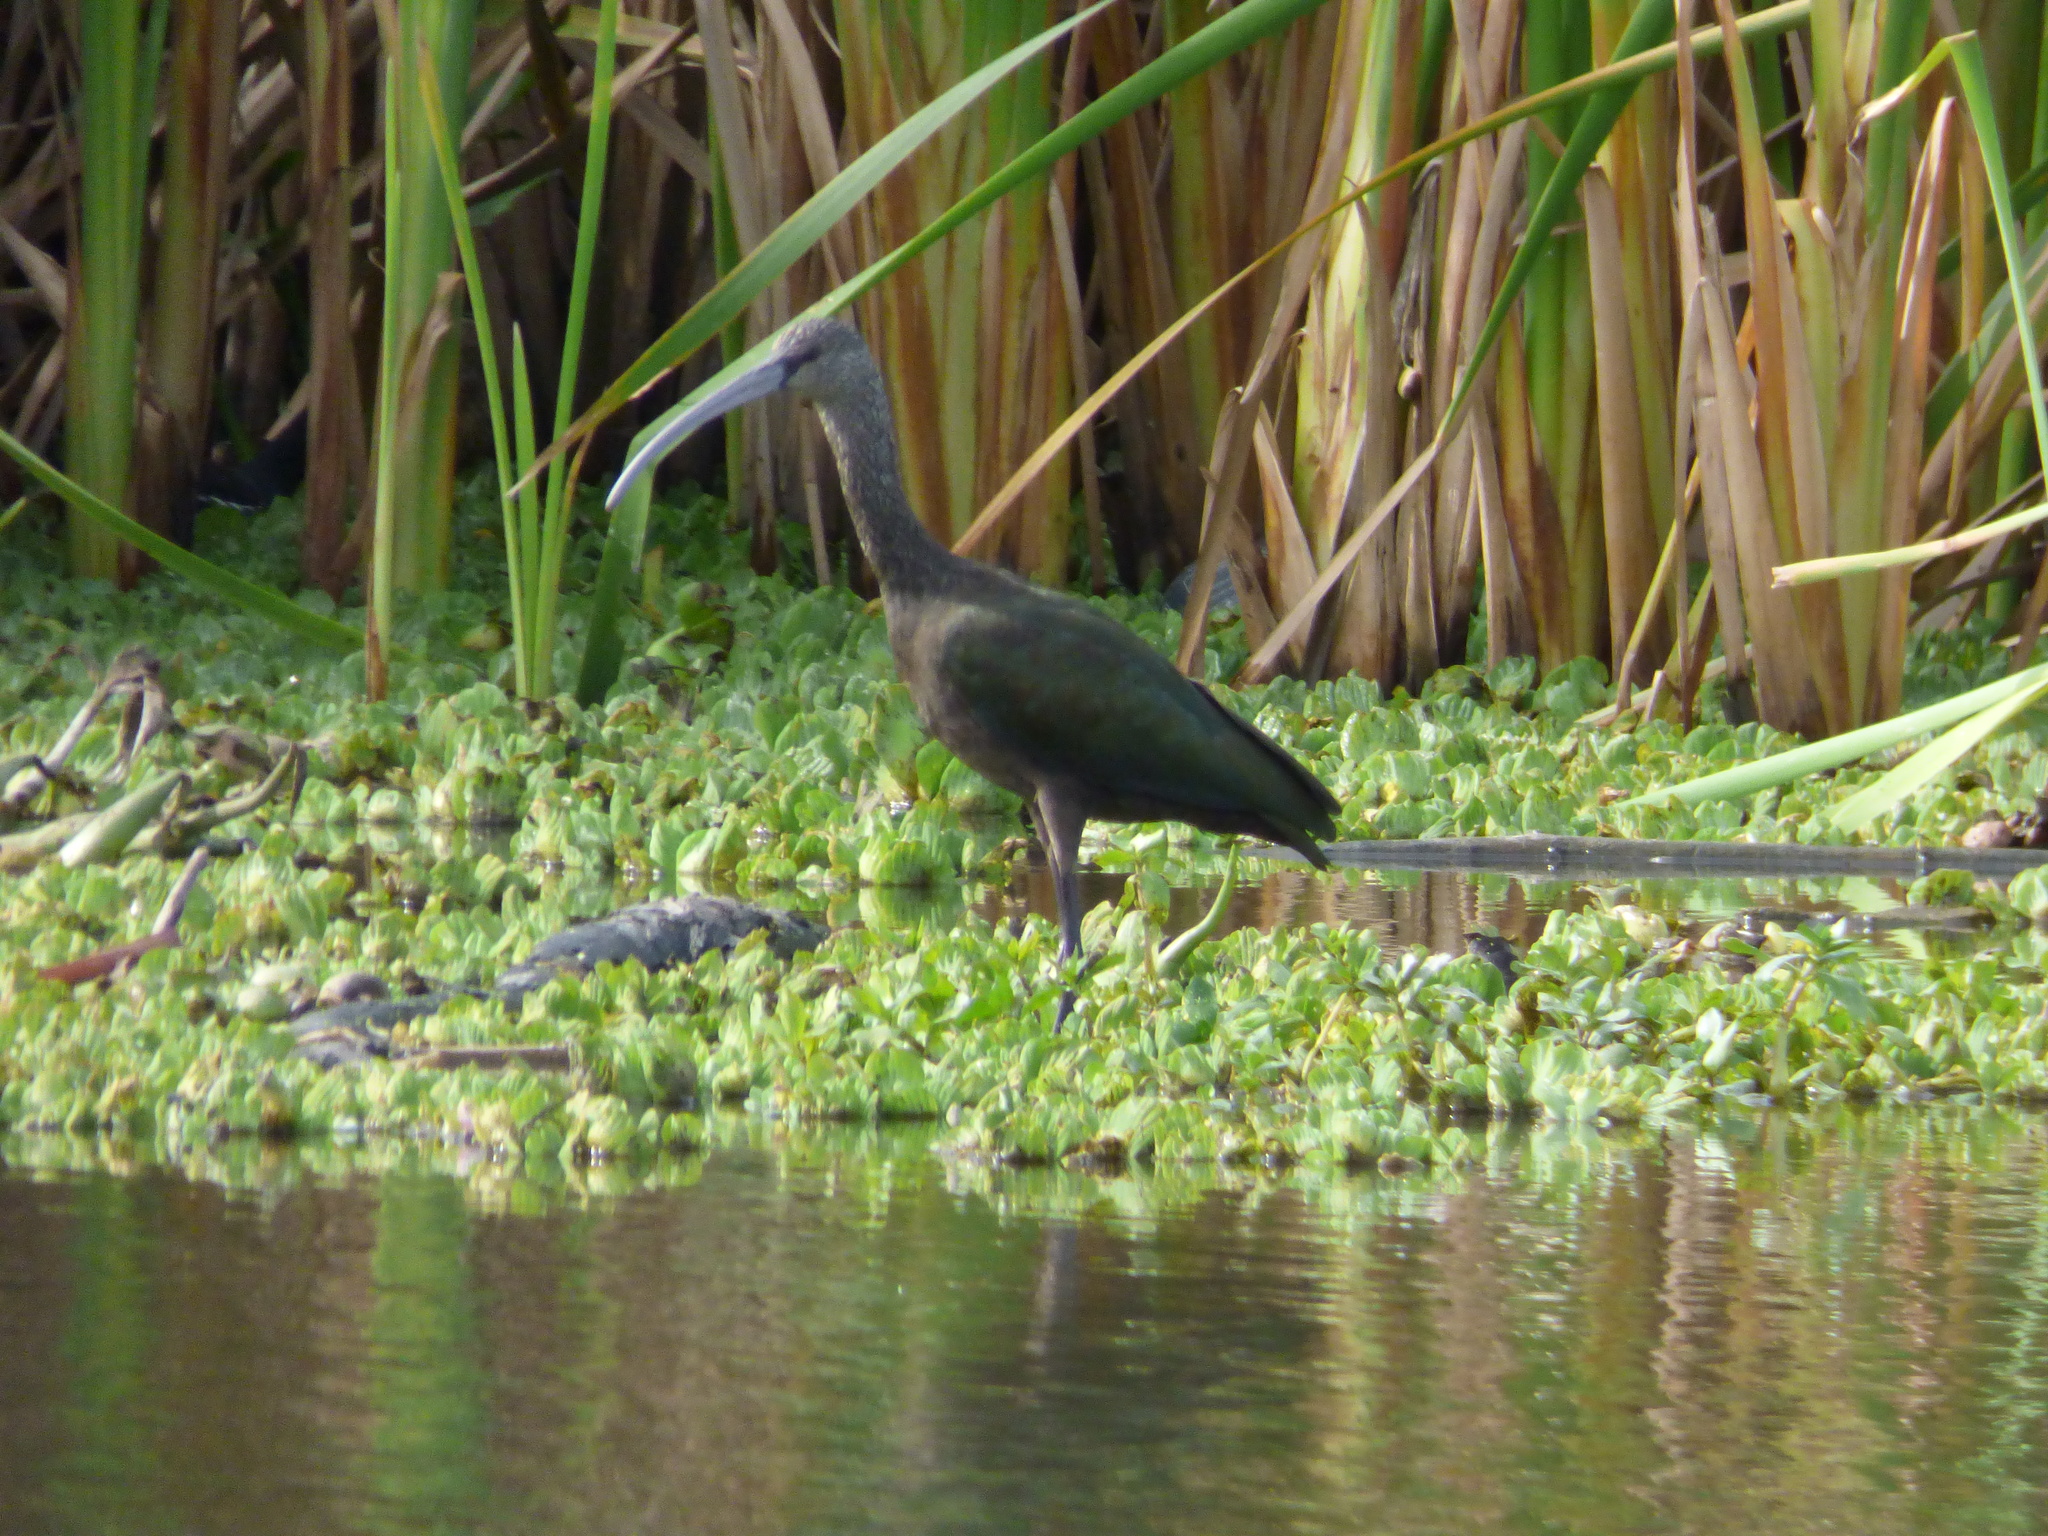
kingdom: Animalia
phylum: Chordata
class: Aves
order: Pelecaniformes
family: Threskiornithidae
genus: Plegadis
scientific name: Plegadis chihi
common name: White-faced ibis
